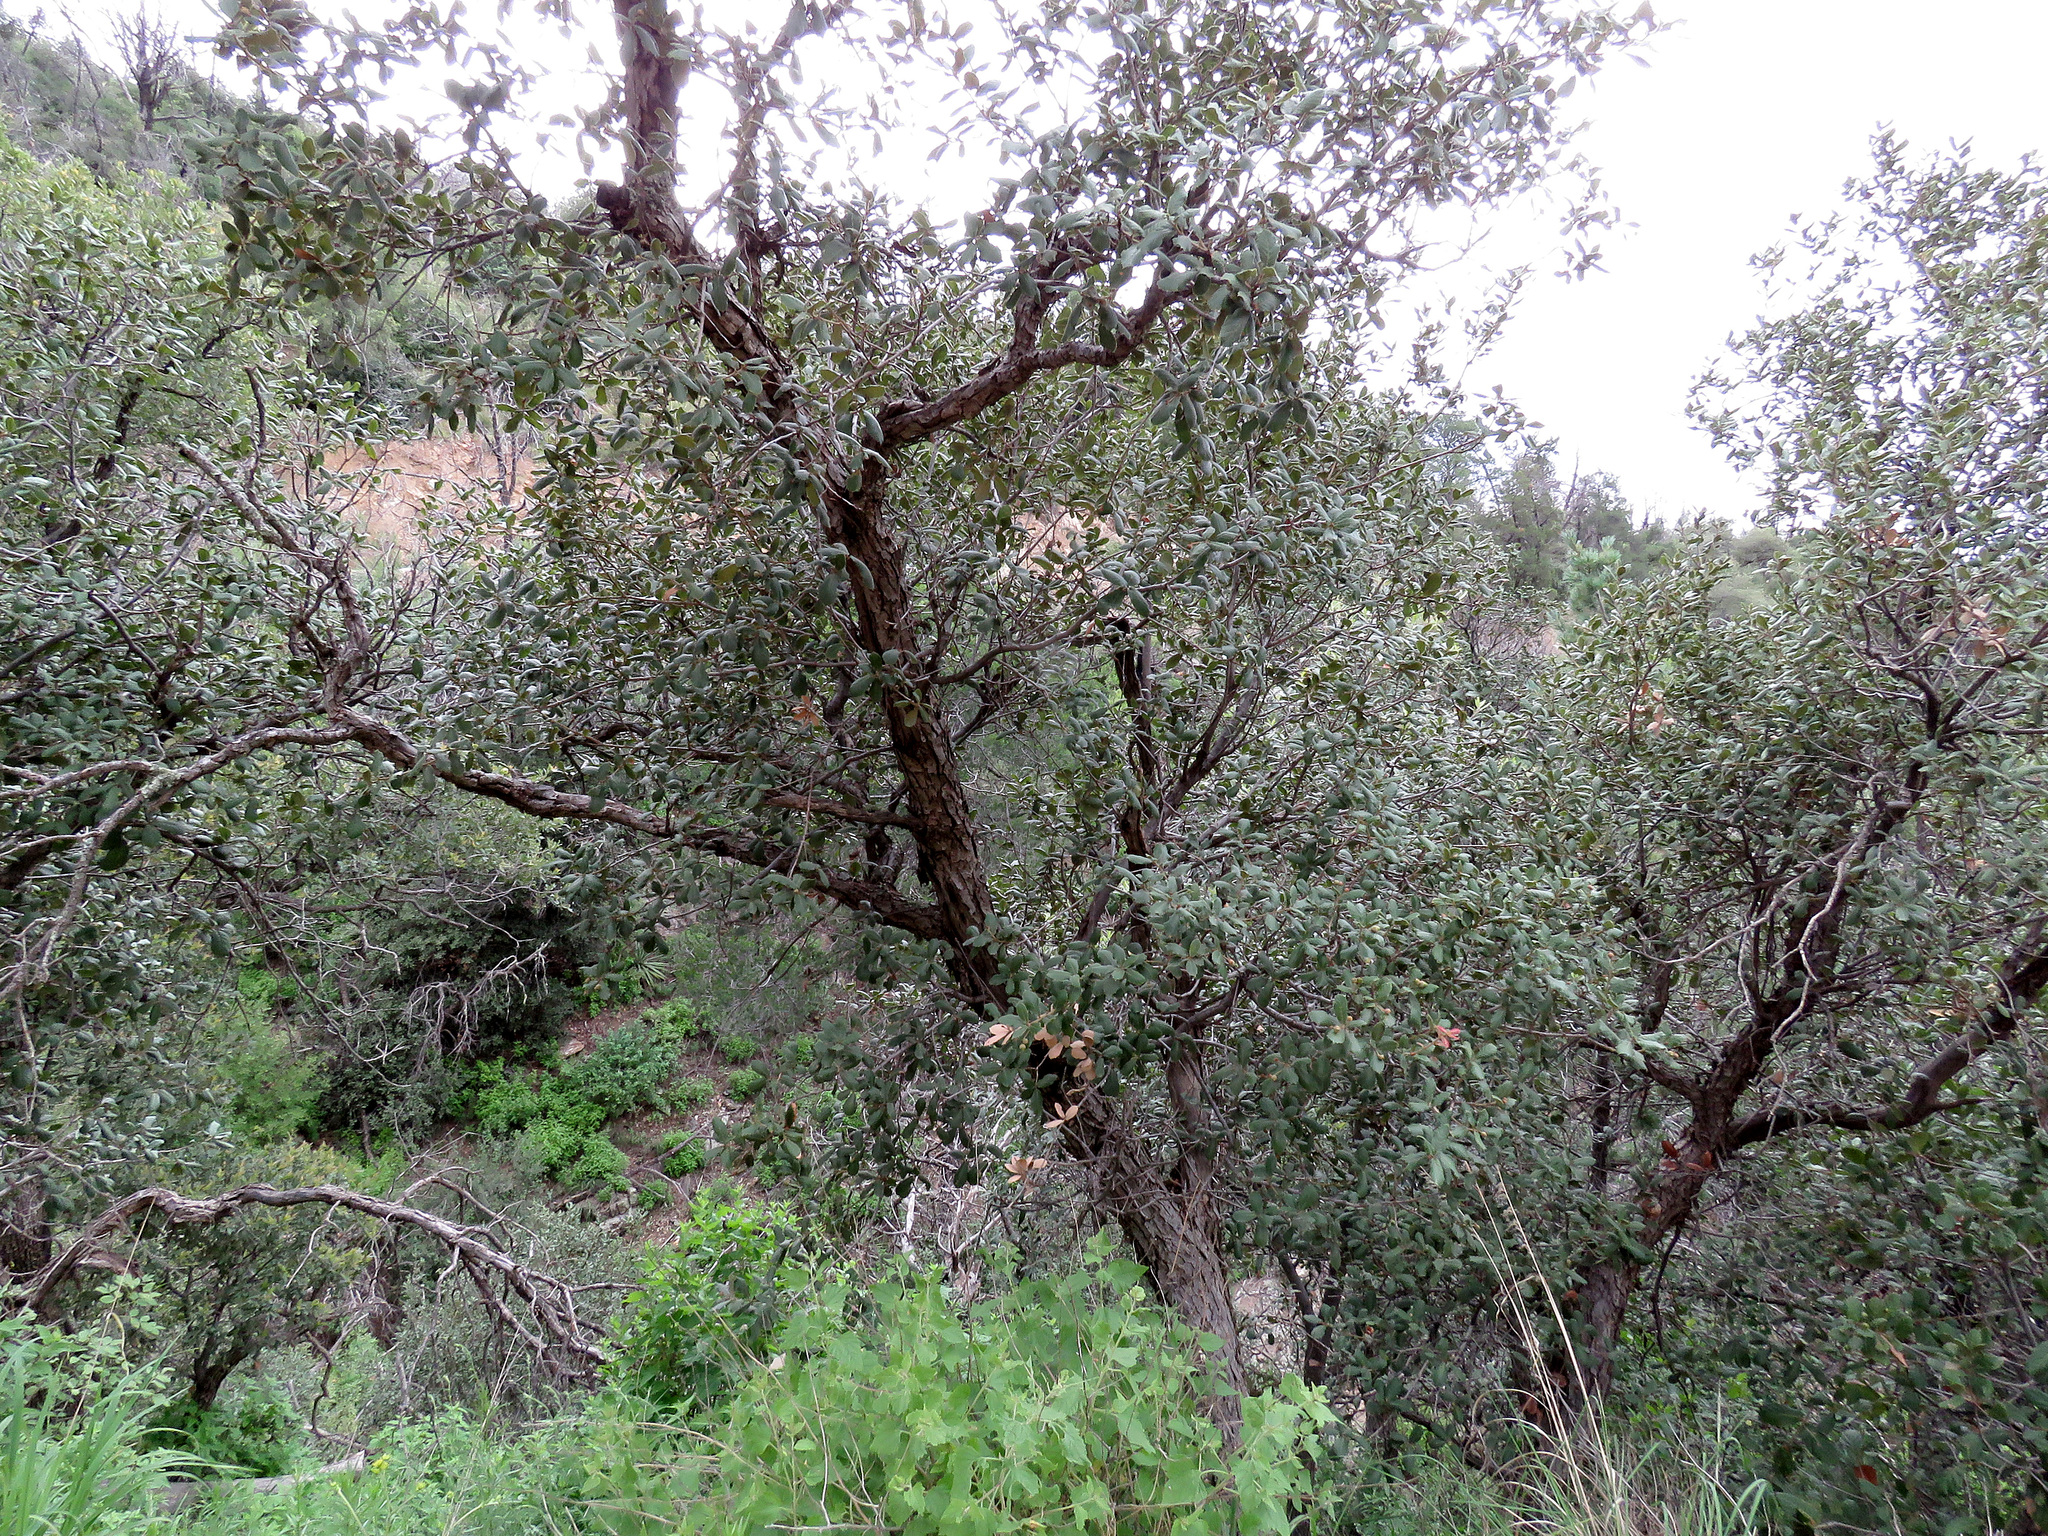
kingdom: Plantae
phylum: Tracheophyta
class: Magnoliopsida
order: Fagales
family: Fagaceae
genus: Quercus
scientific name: Quercus rugosa
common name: Netleaf oak
